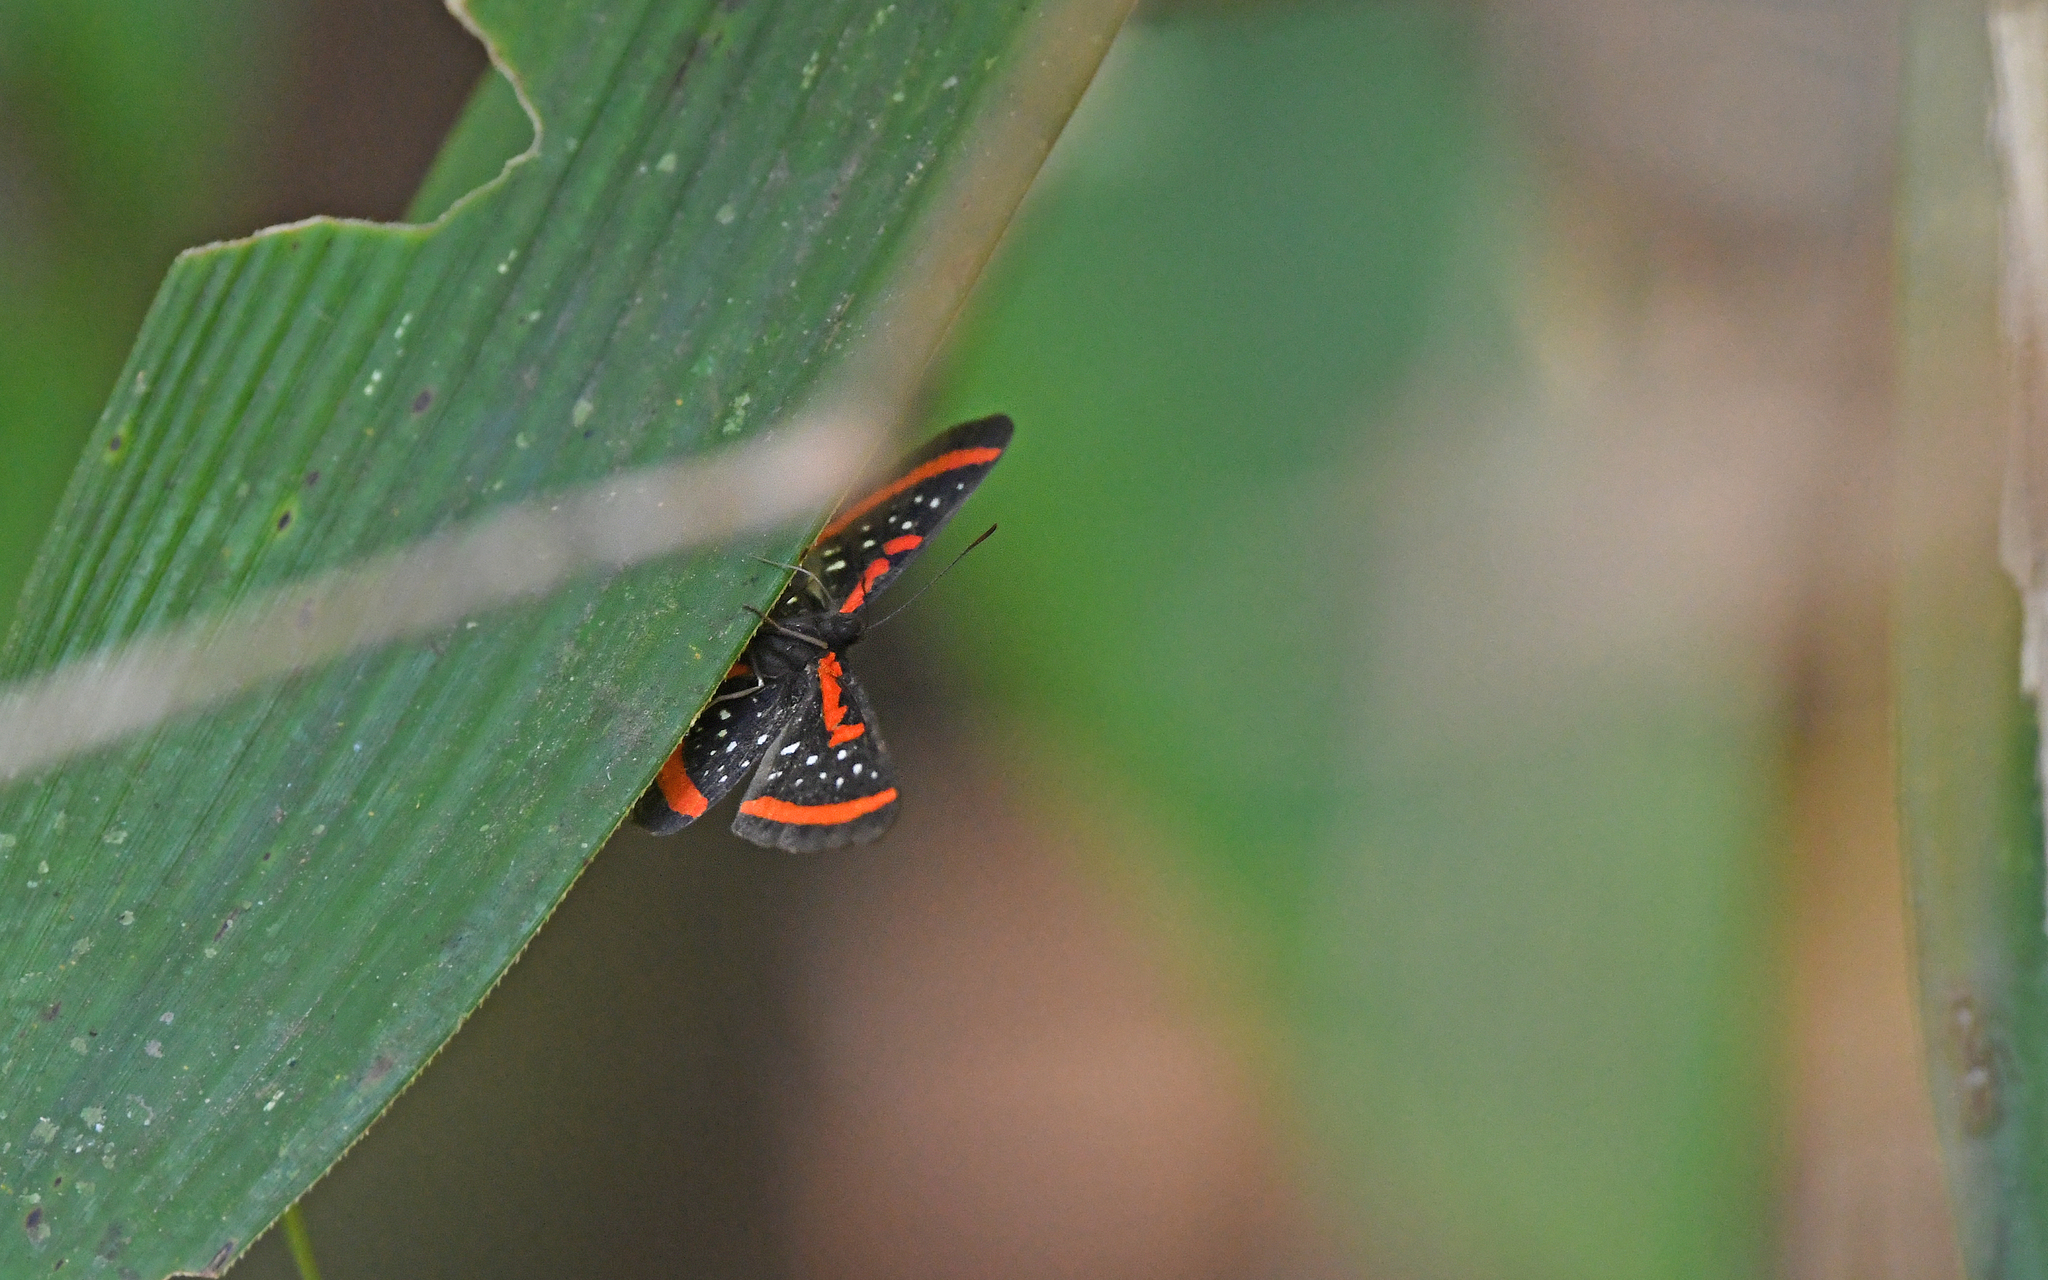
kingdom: Animalia
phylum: Arthropoda
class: Insecta
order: Lepidoptera
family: Riodinidae
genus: Amarynthis
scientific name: Amarynthis meneria
